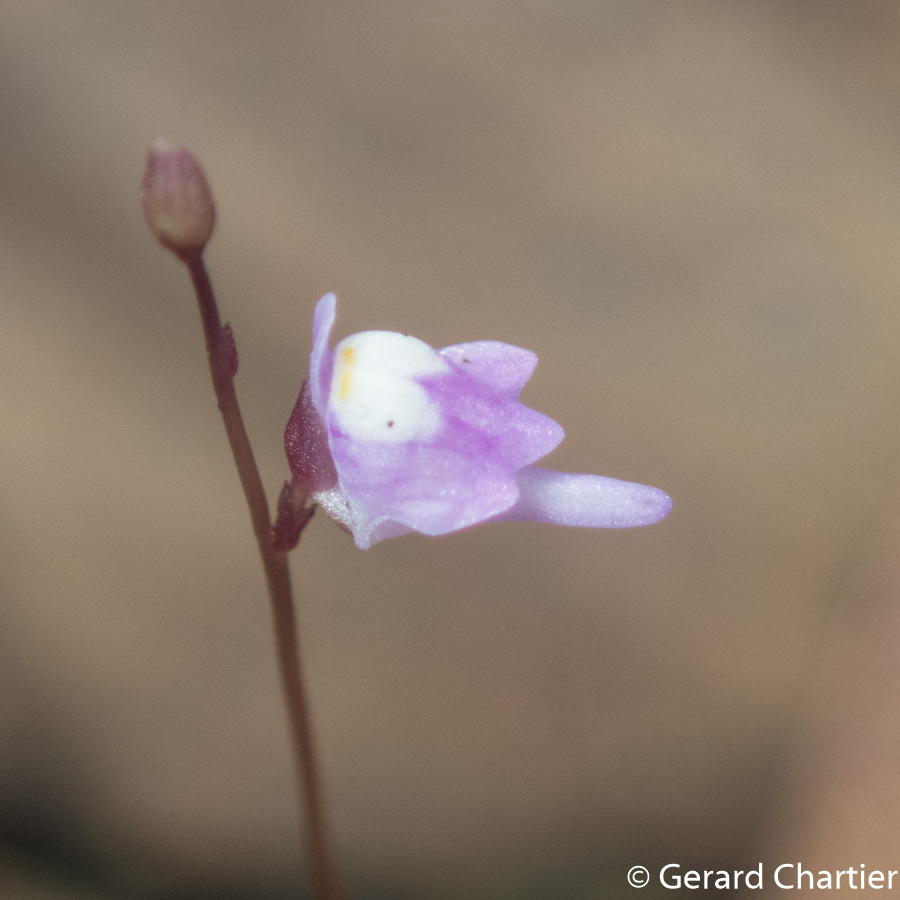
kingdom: Plantae
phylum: Tracheophyta
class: Magnoliopsida
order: Lamiales
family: Lentibulariaceae
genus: Utricularia
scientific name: Utricularia geoffrayi
